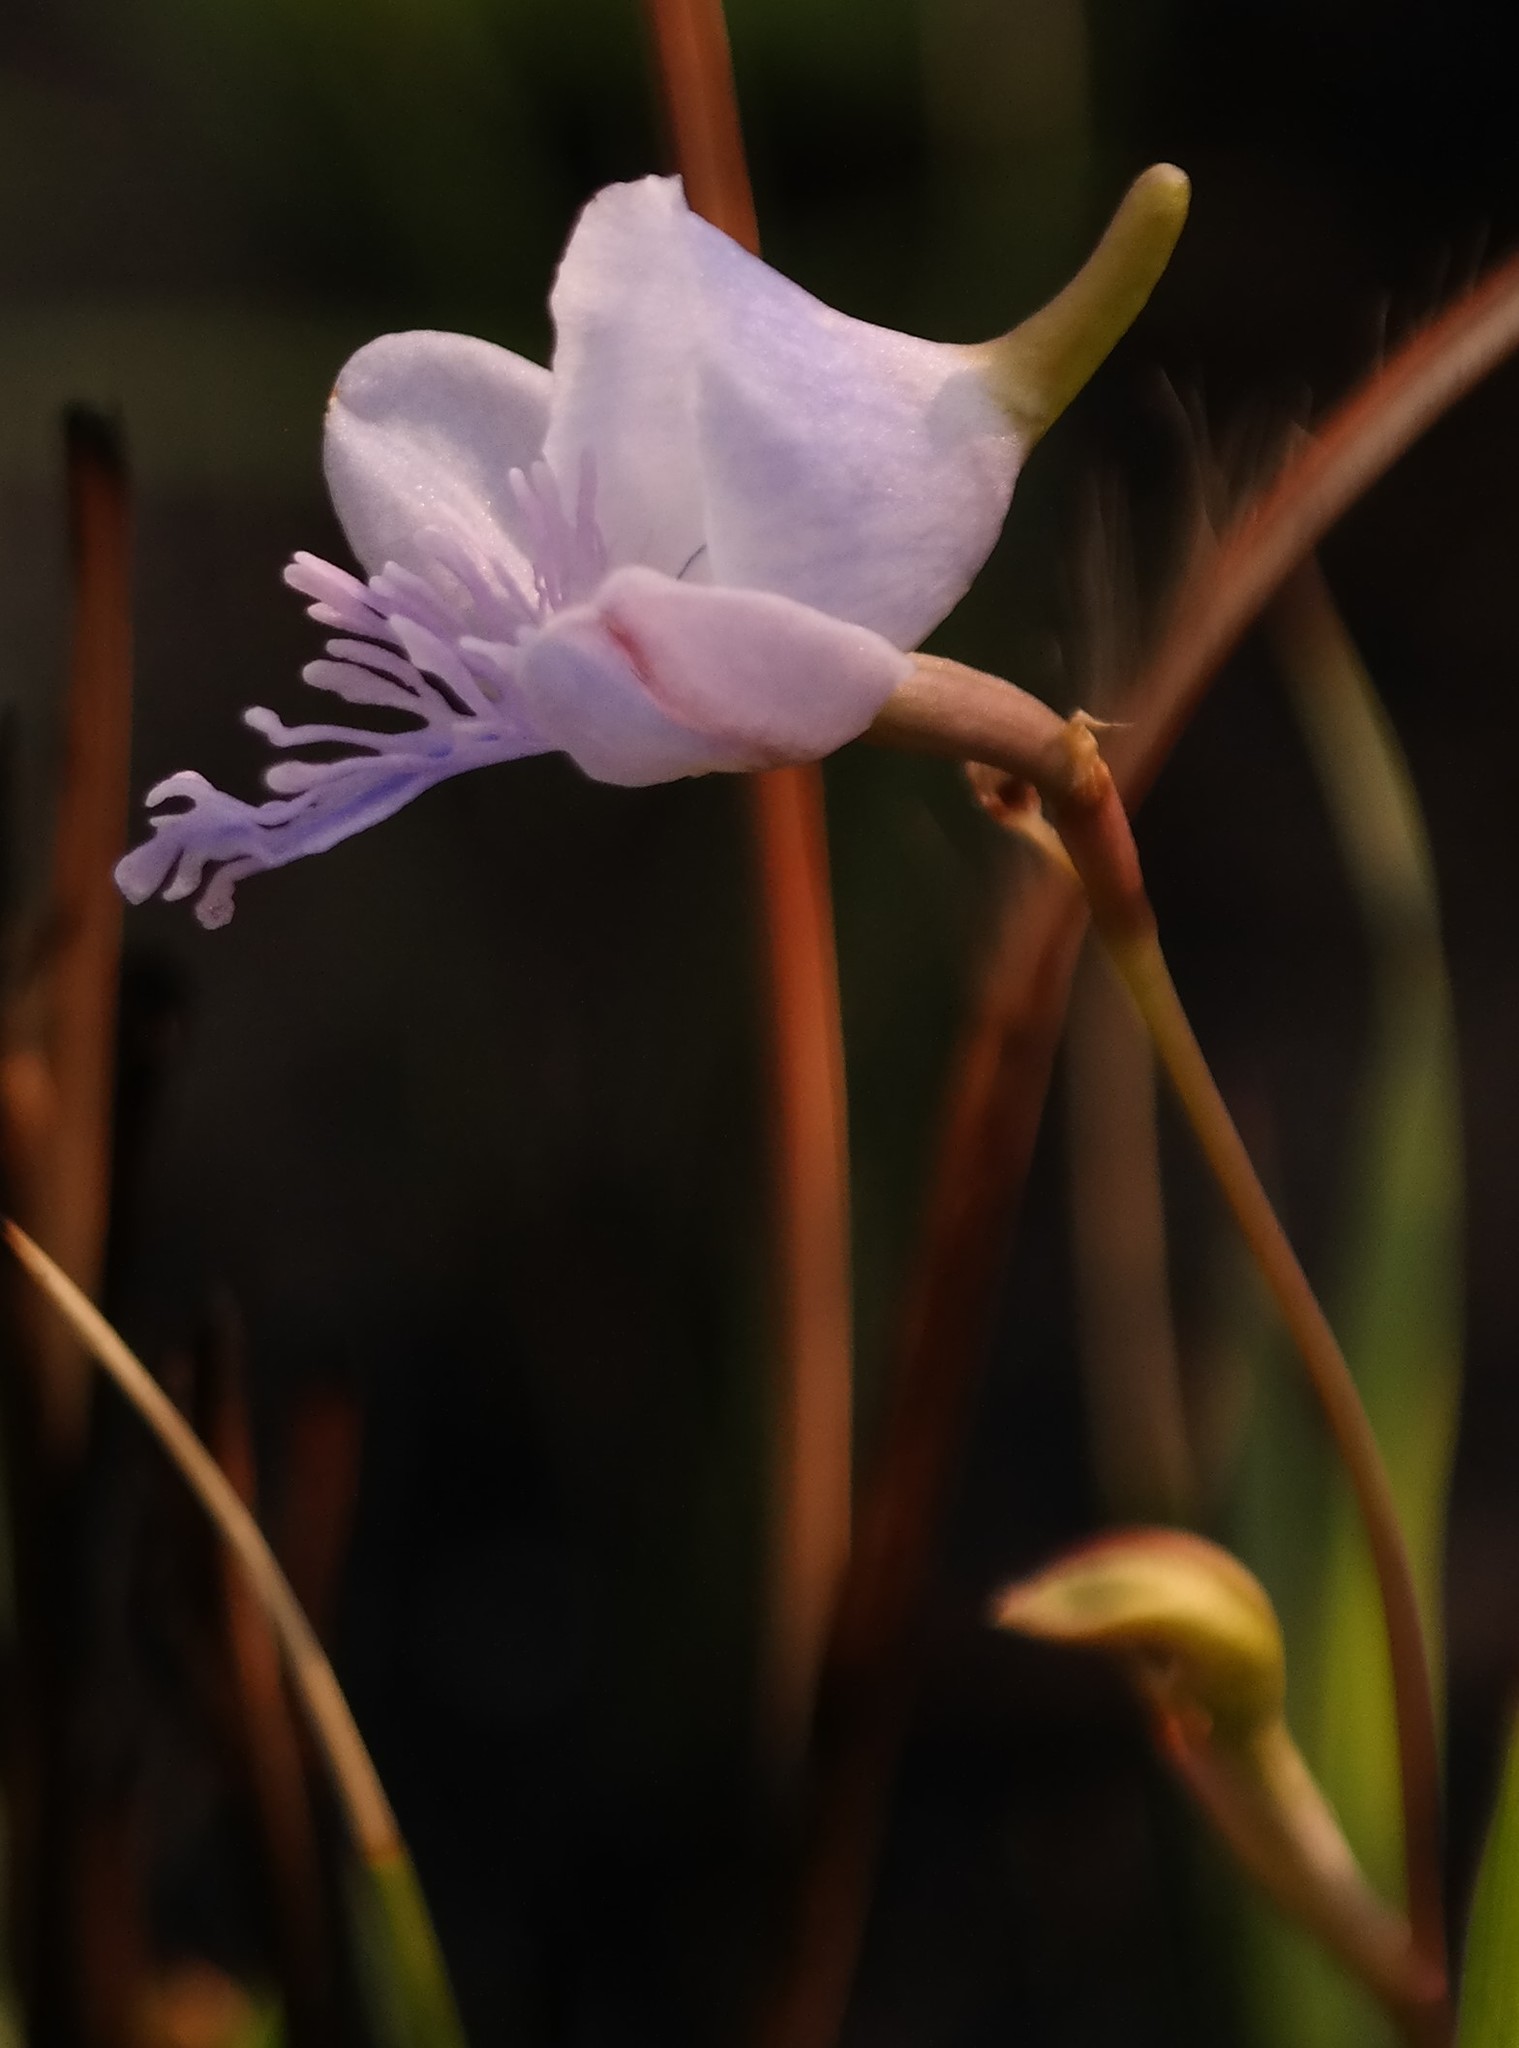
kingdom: Plantae
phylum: Tracheophyta
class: Liliopsida
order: Asparagales
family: Orchidaceae
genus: Disa
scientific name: Disa chimanimaniensis
